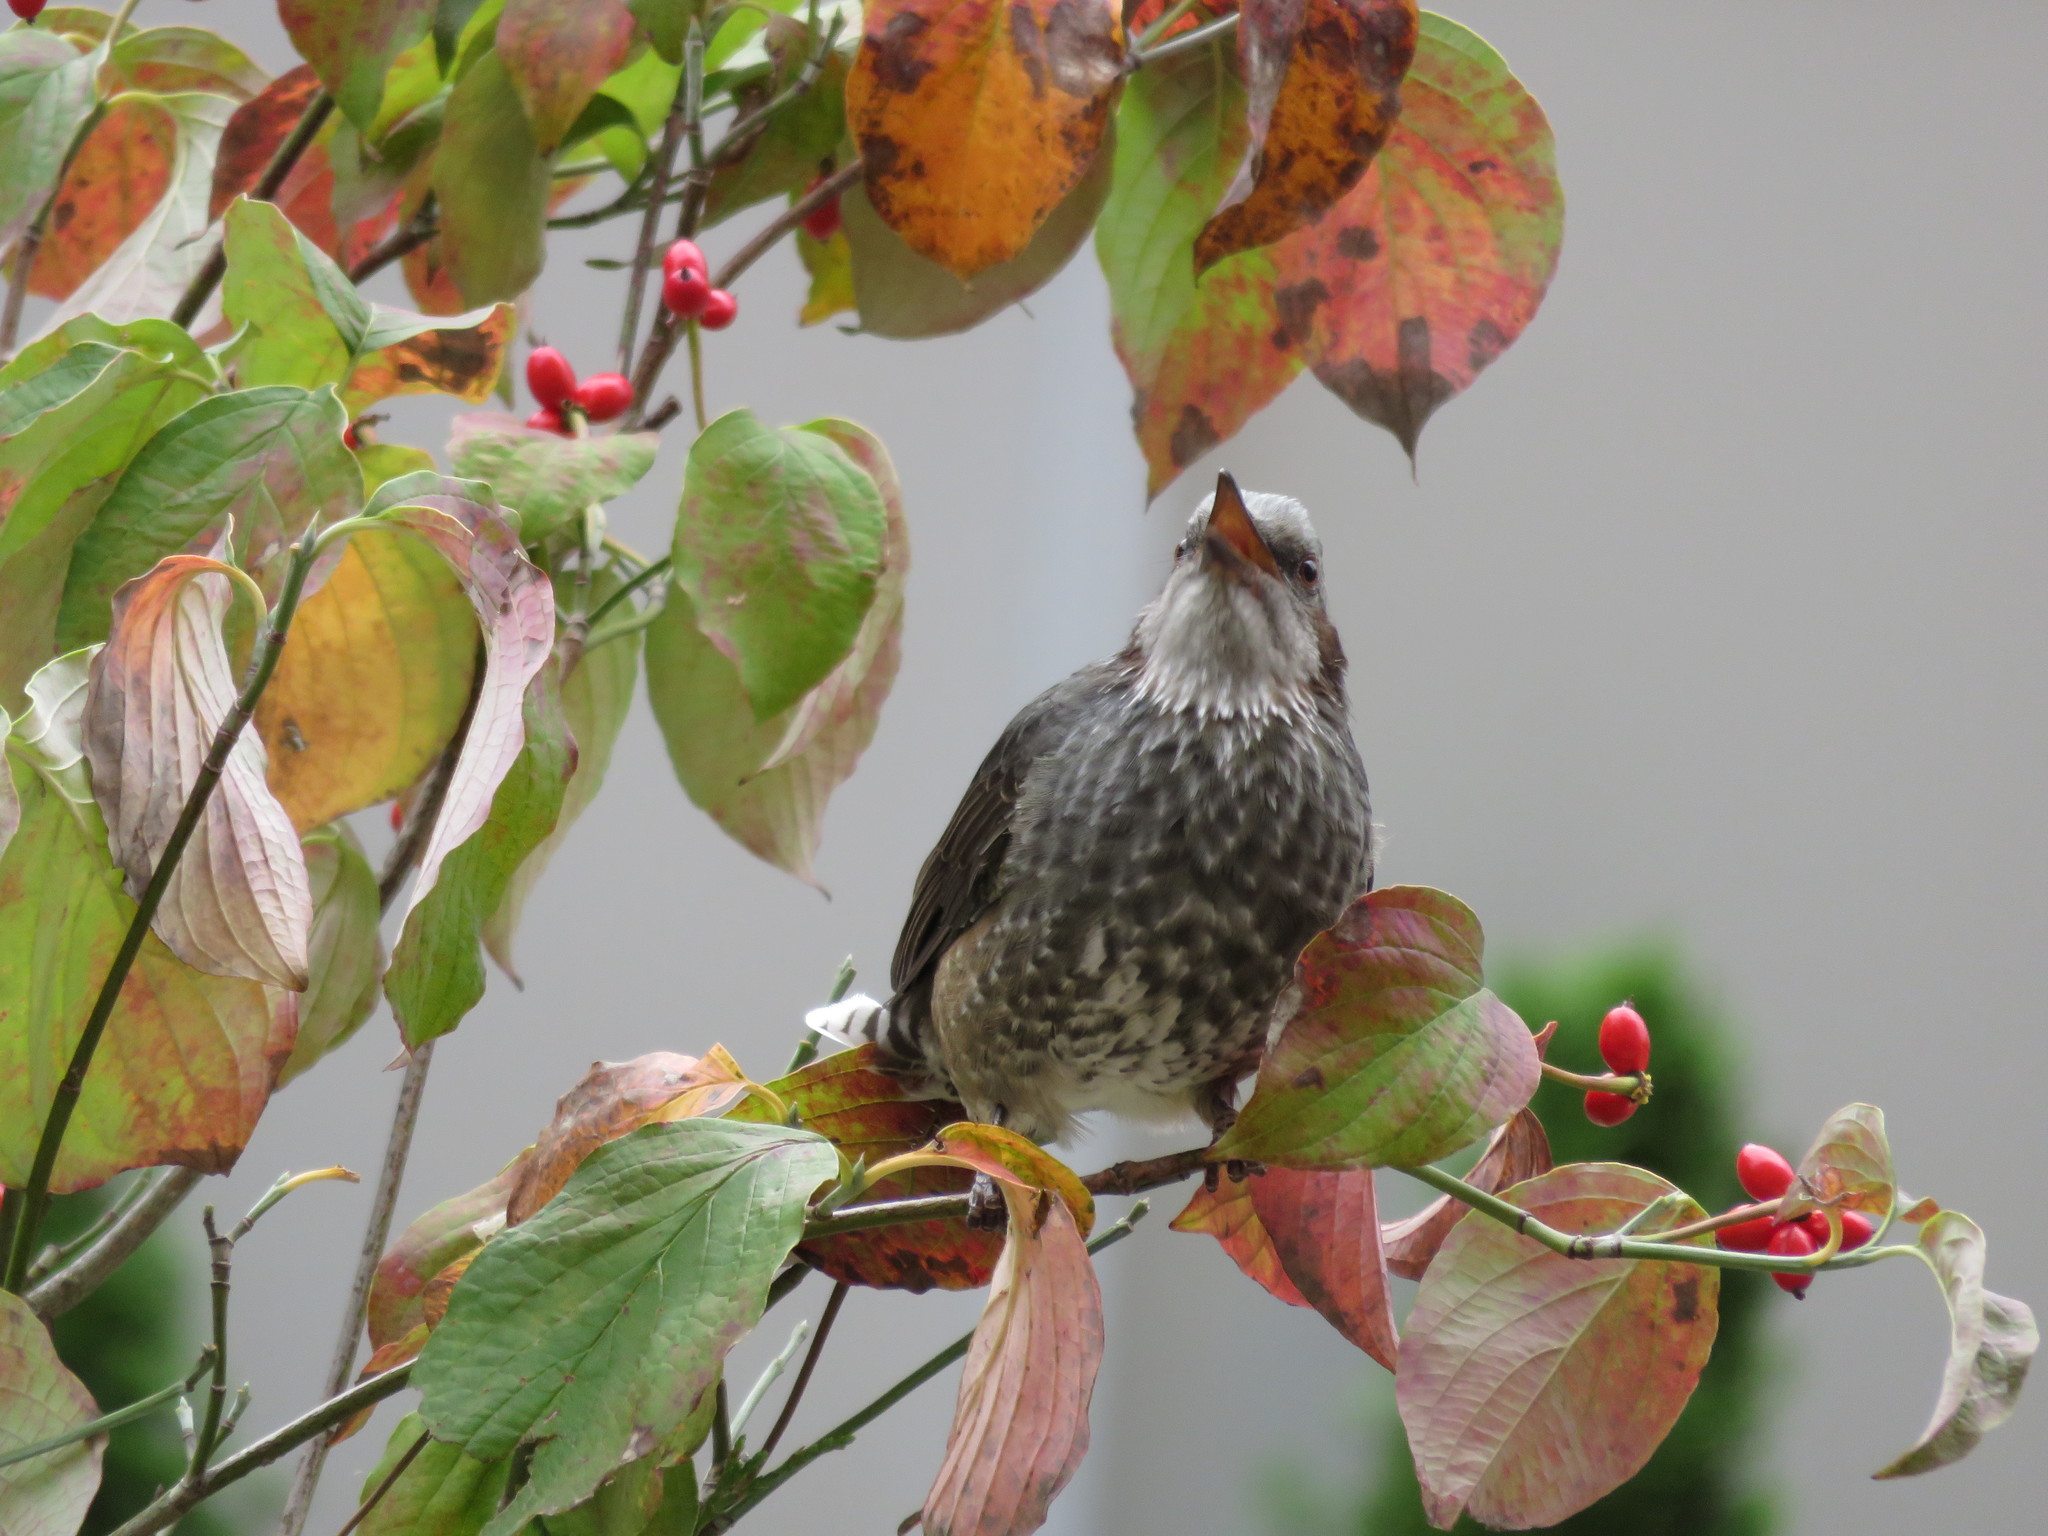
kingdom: Animalia
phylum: Chordata
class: Aves
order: Passeriformes
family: Pycnonotidae
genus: Hypsipetes
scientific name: Hypsipetes amaurotis
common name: Brown-eared bulbul
